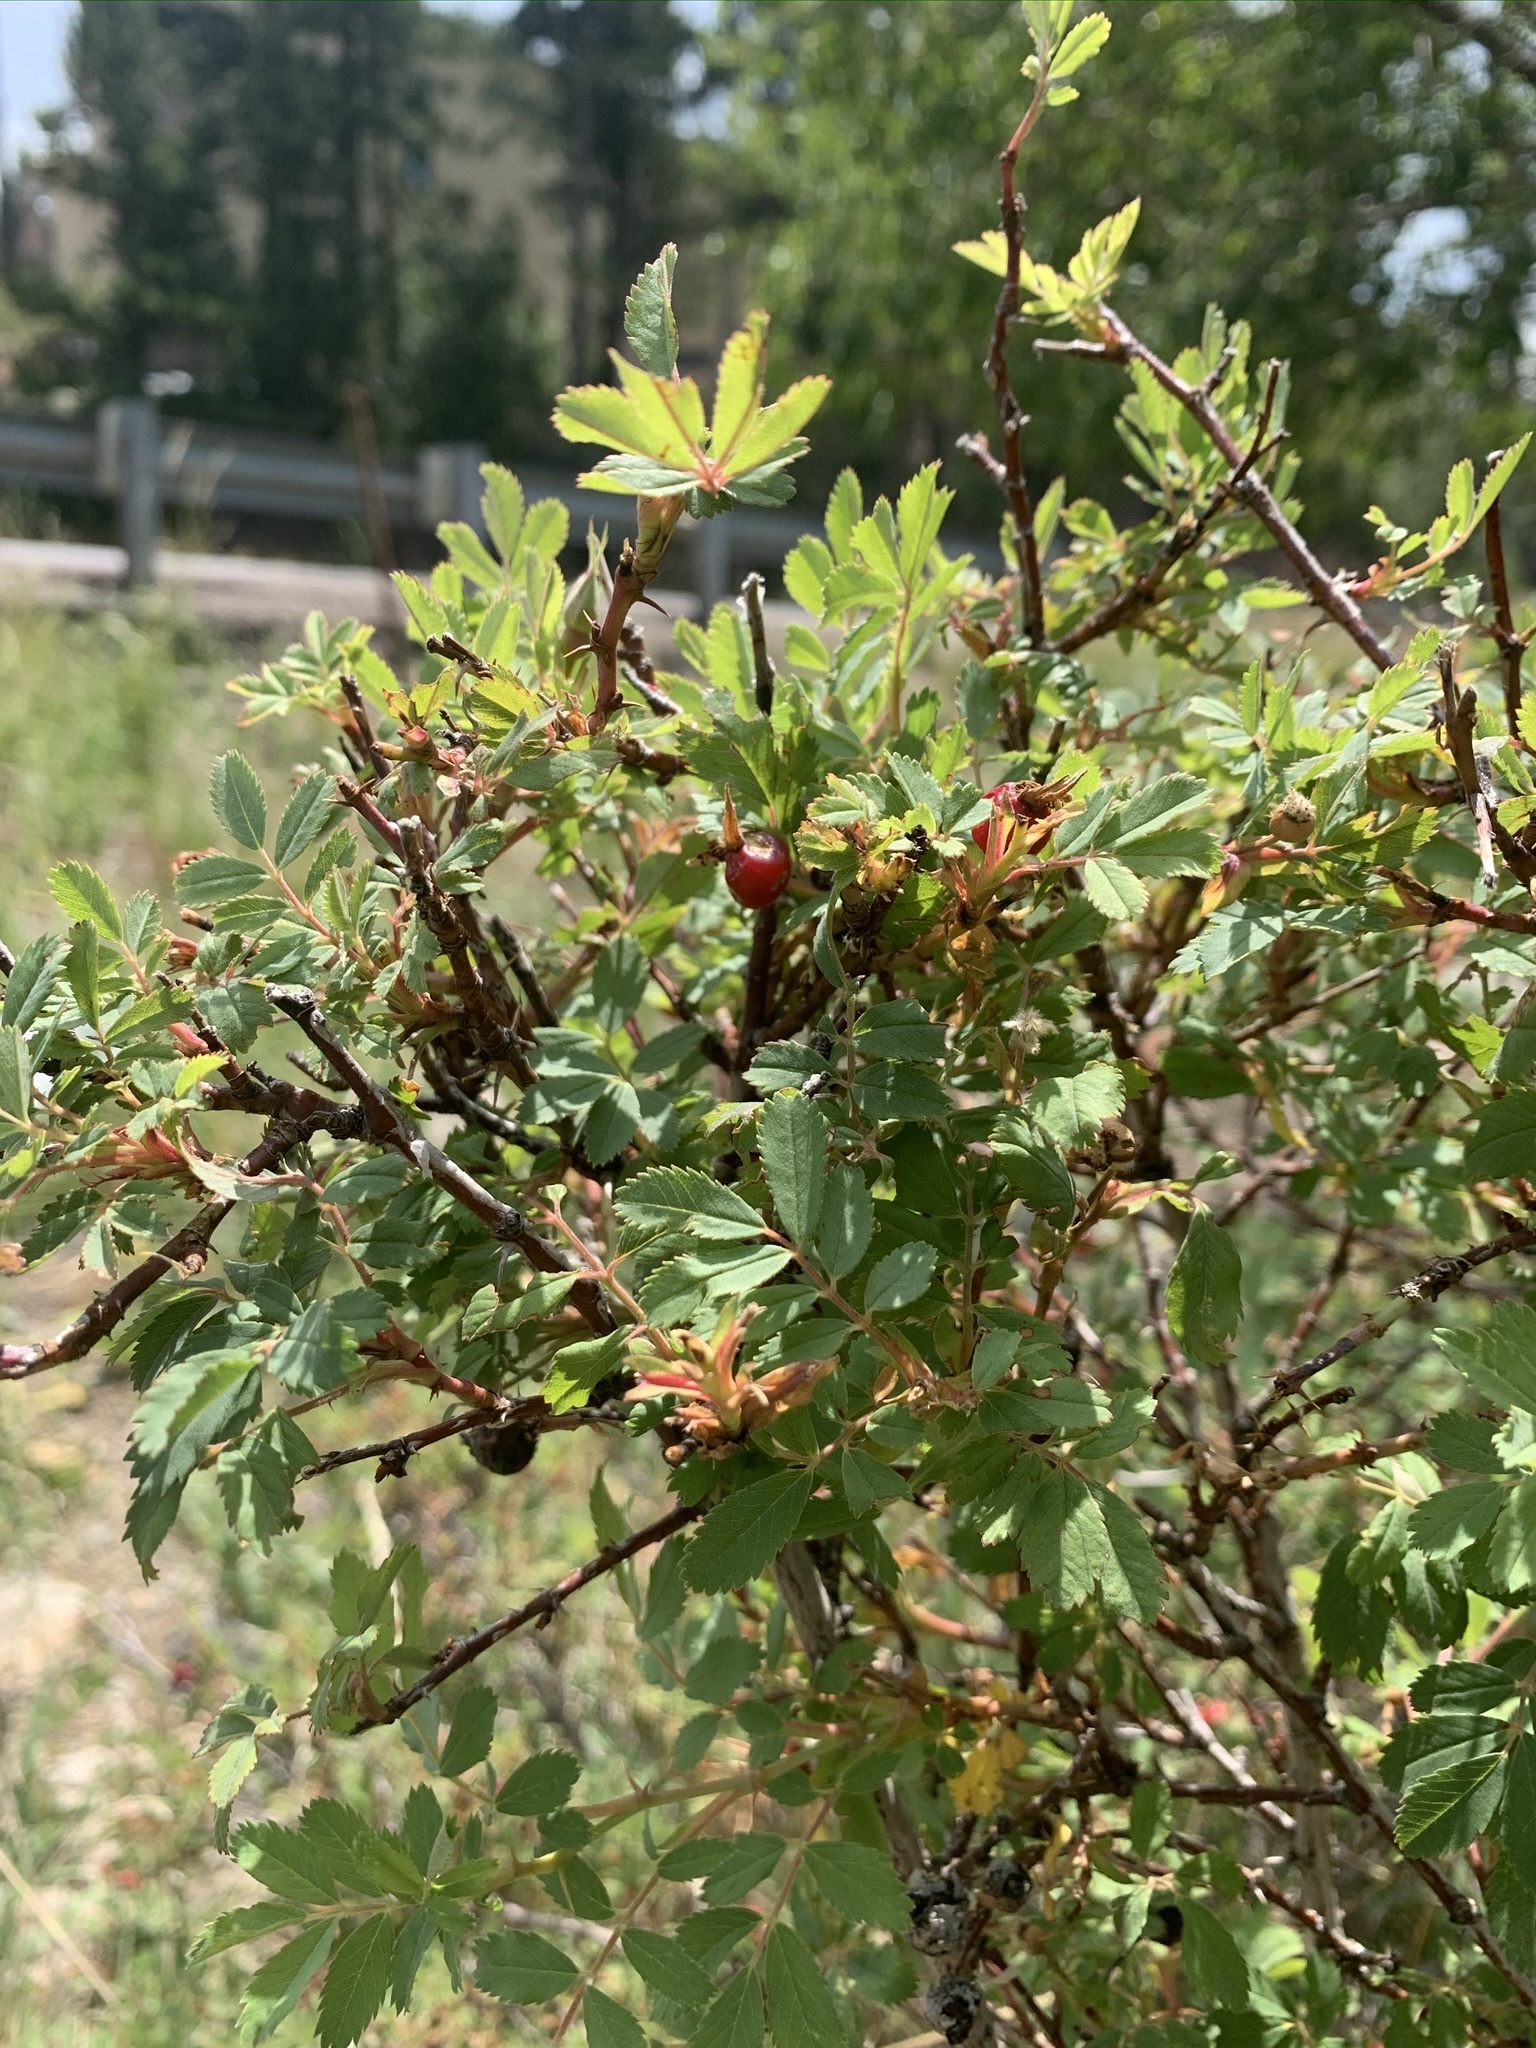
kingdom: Plantae
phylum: Tracheophyta
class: Magnoliopsida
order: Rosales
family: Rosaceae
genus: Rosa
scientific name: Rosa woodsii
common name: Woods's rose
